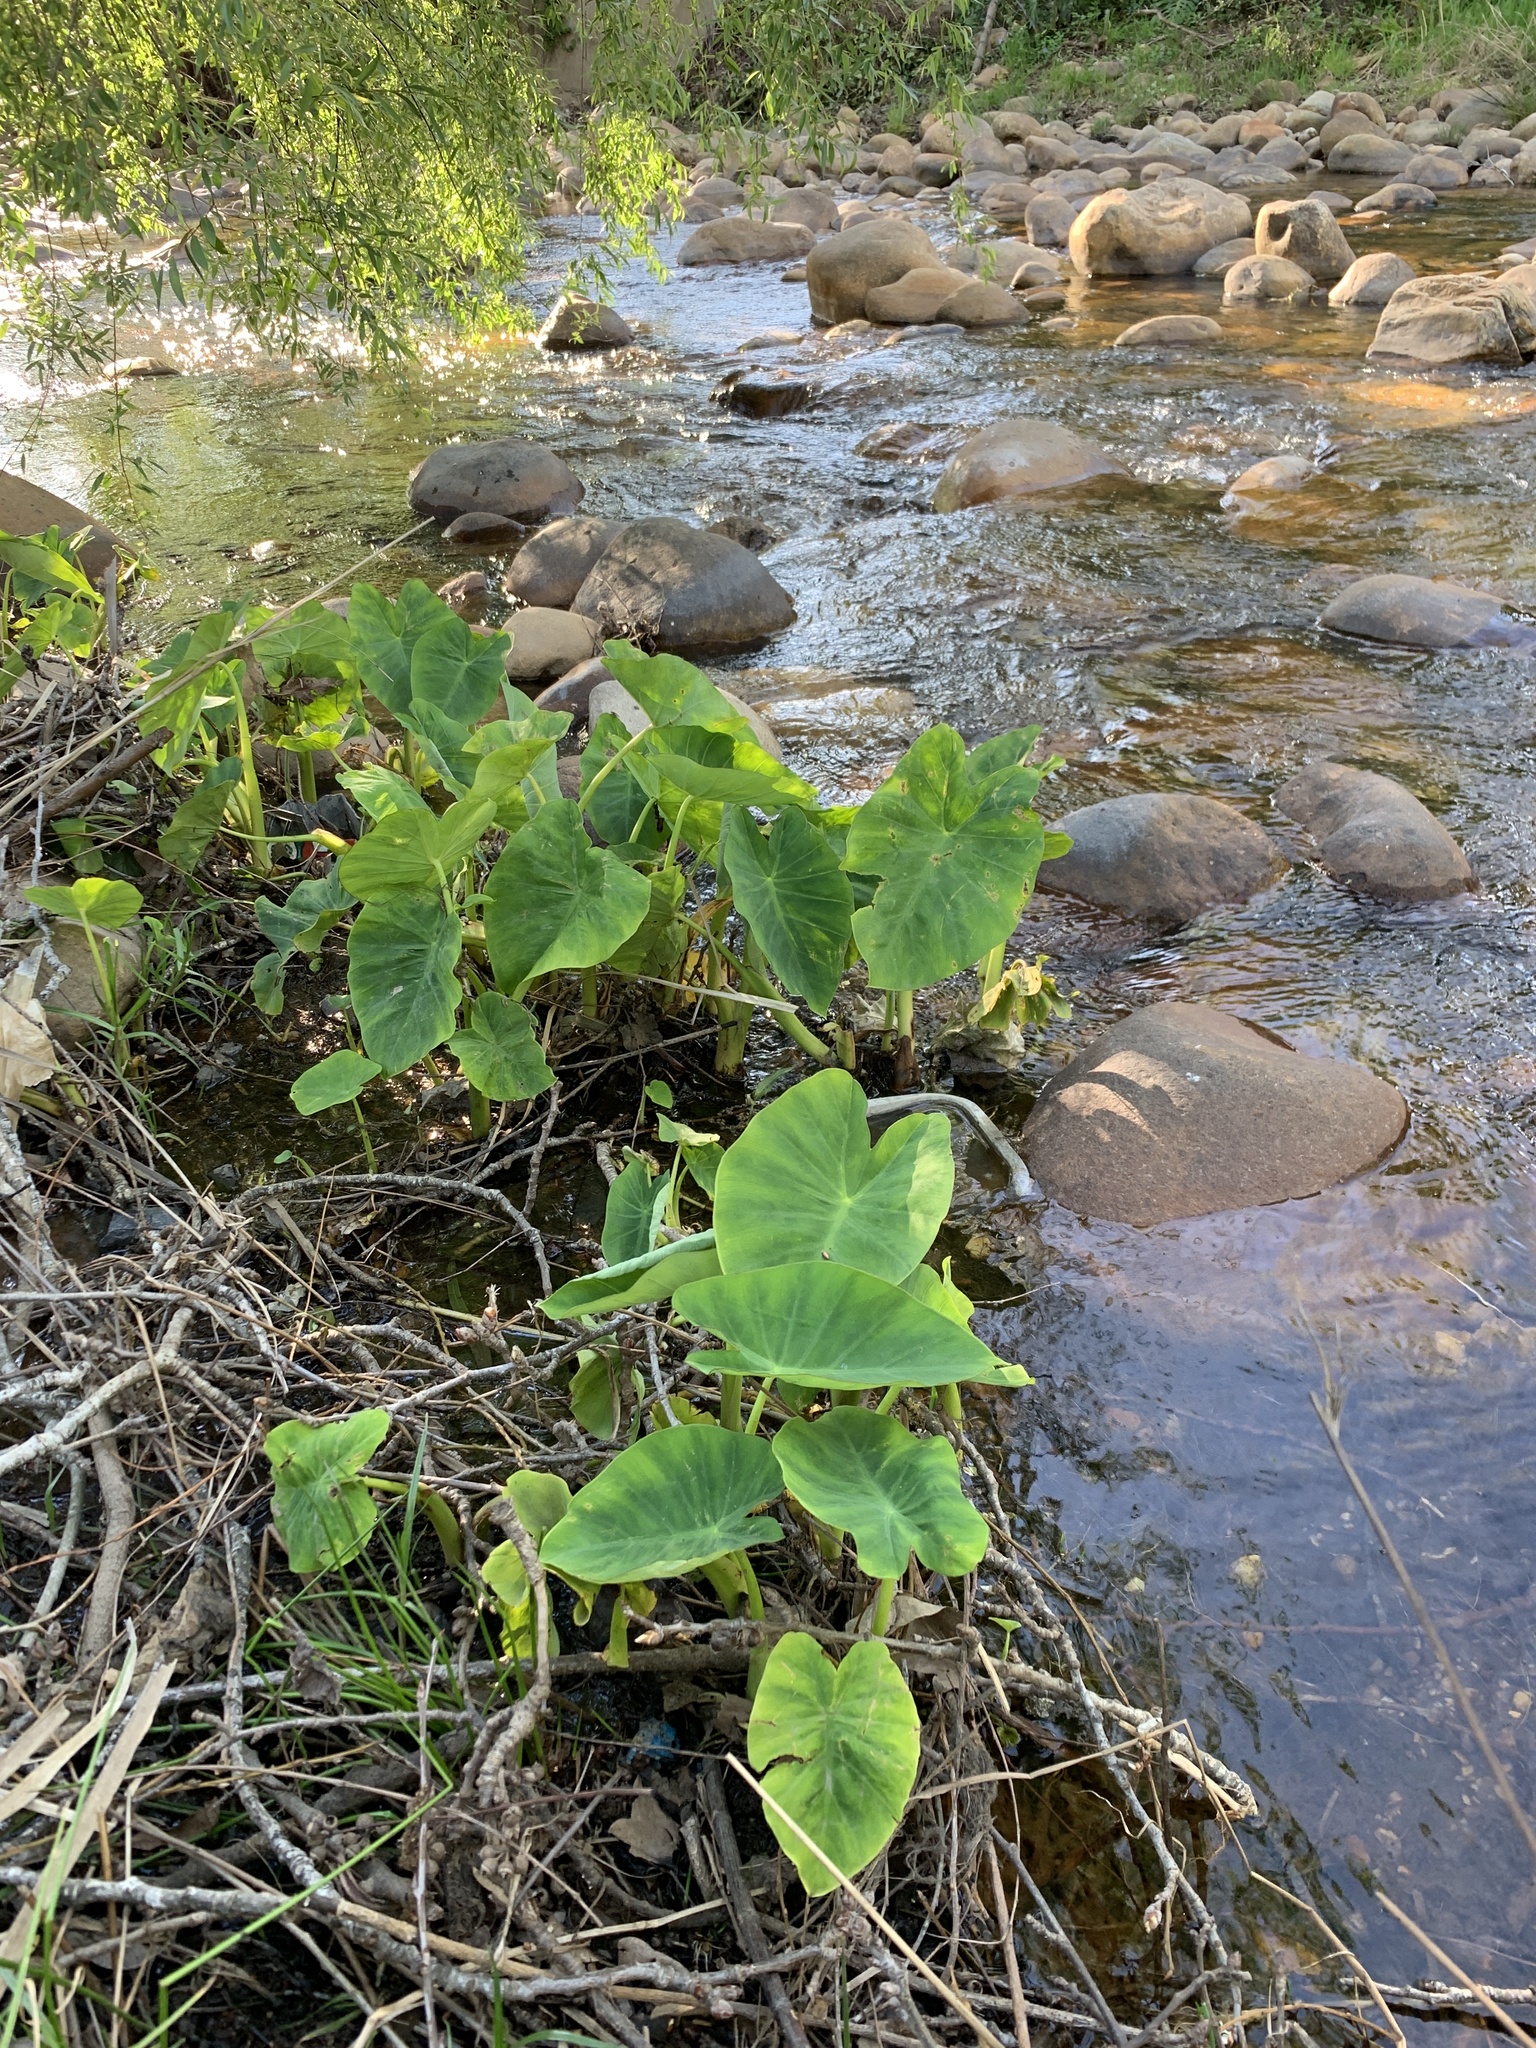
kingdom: Plantae
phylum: Tracheophyta
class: Liliopsida
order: Alismatales
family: Araceae
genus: Colocasia
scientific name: Colocasia esculenta
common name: Taro
